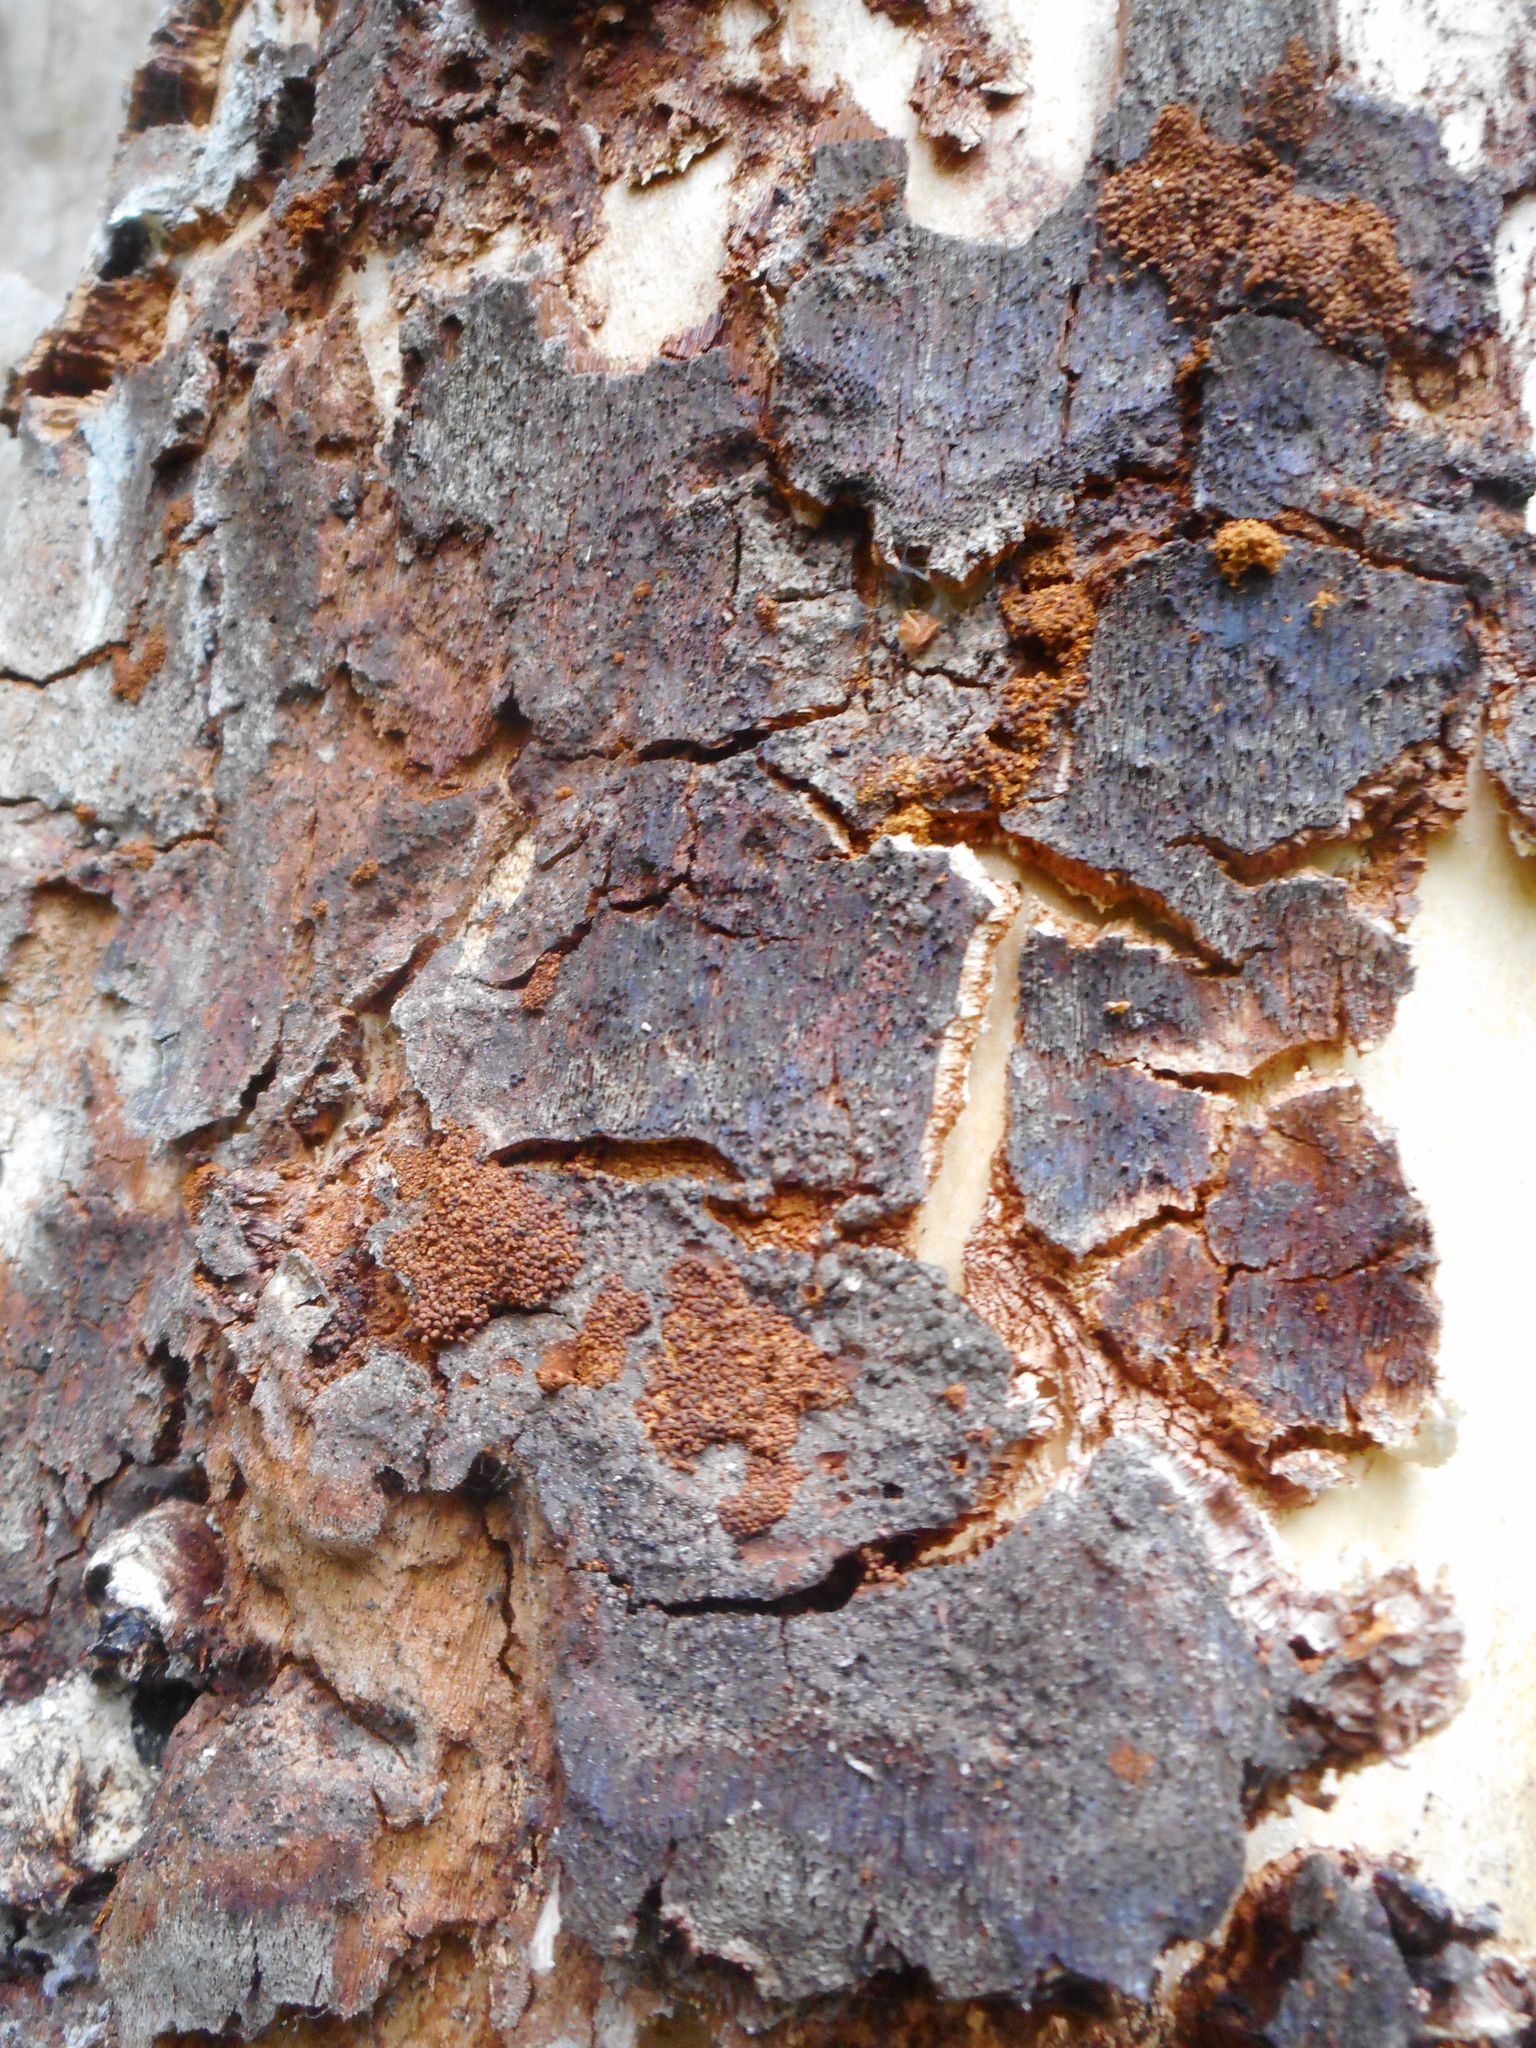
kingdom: Fungi
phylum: Basidiomycota
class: Agaricomycetes
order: Hymenochaetales
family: Hymenochaetaceae
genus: Inonotus
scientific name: Inonotus obliquus
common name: Chaga
